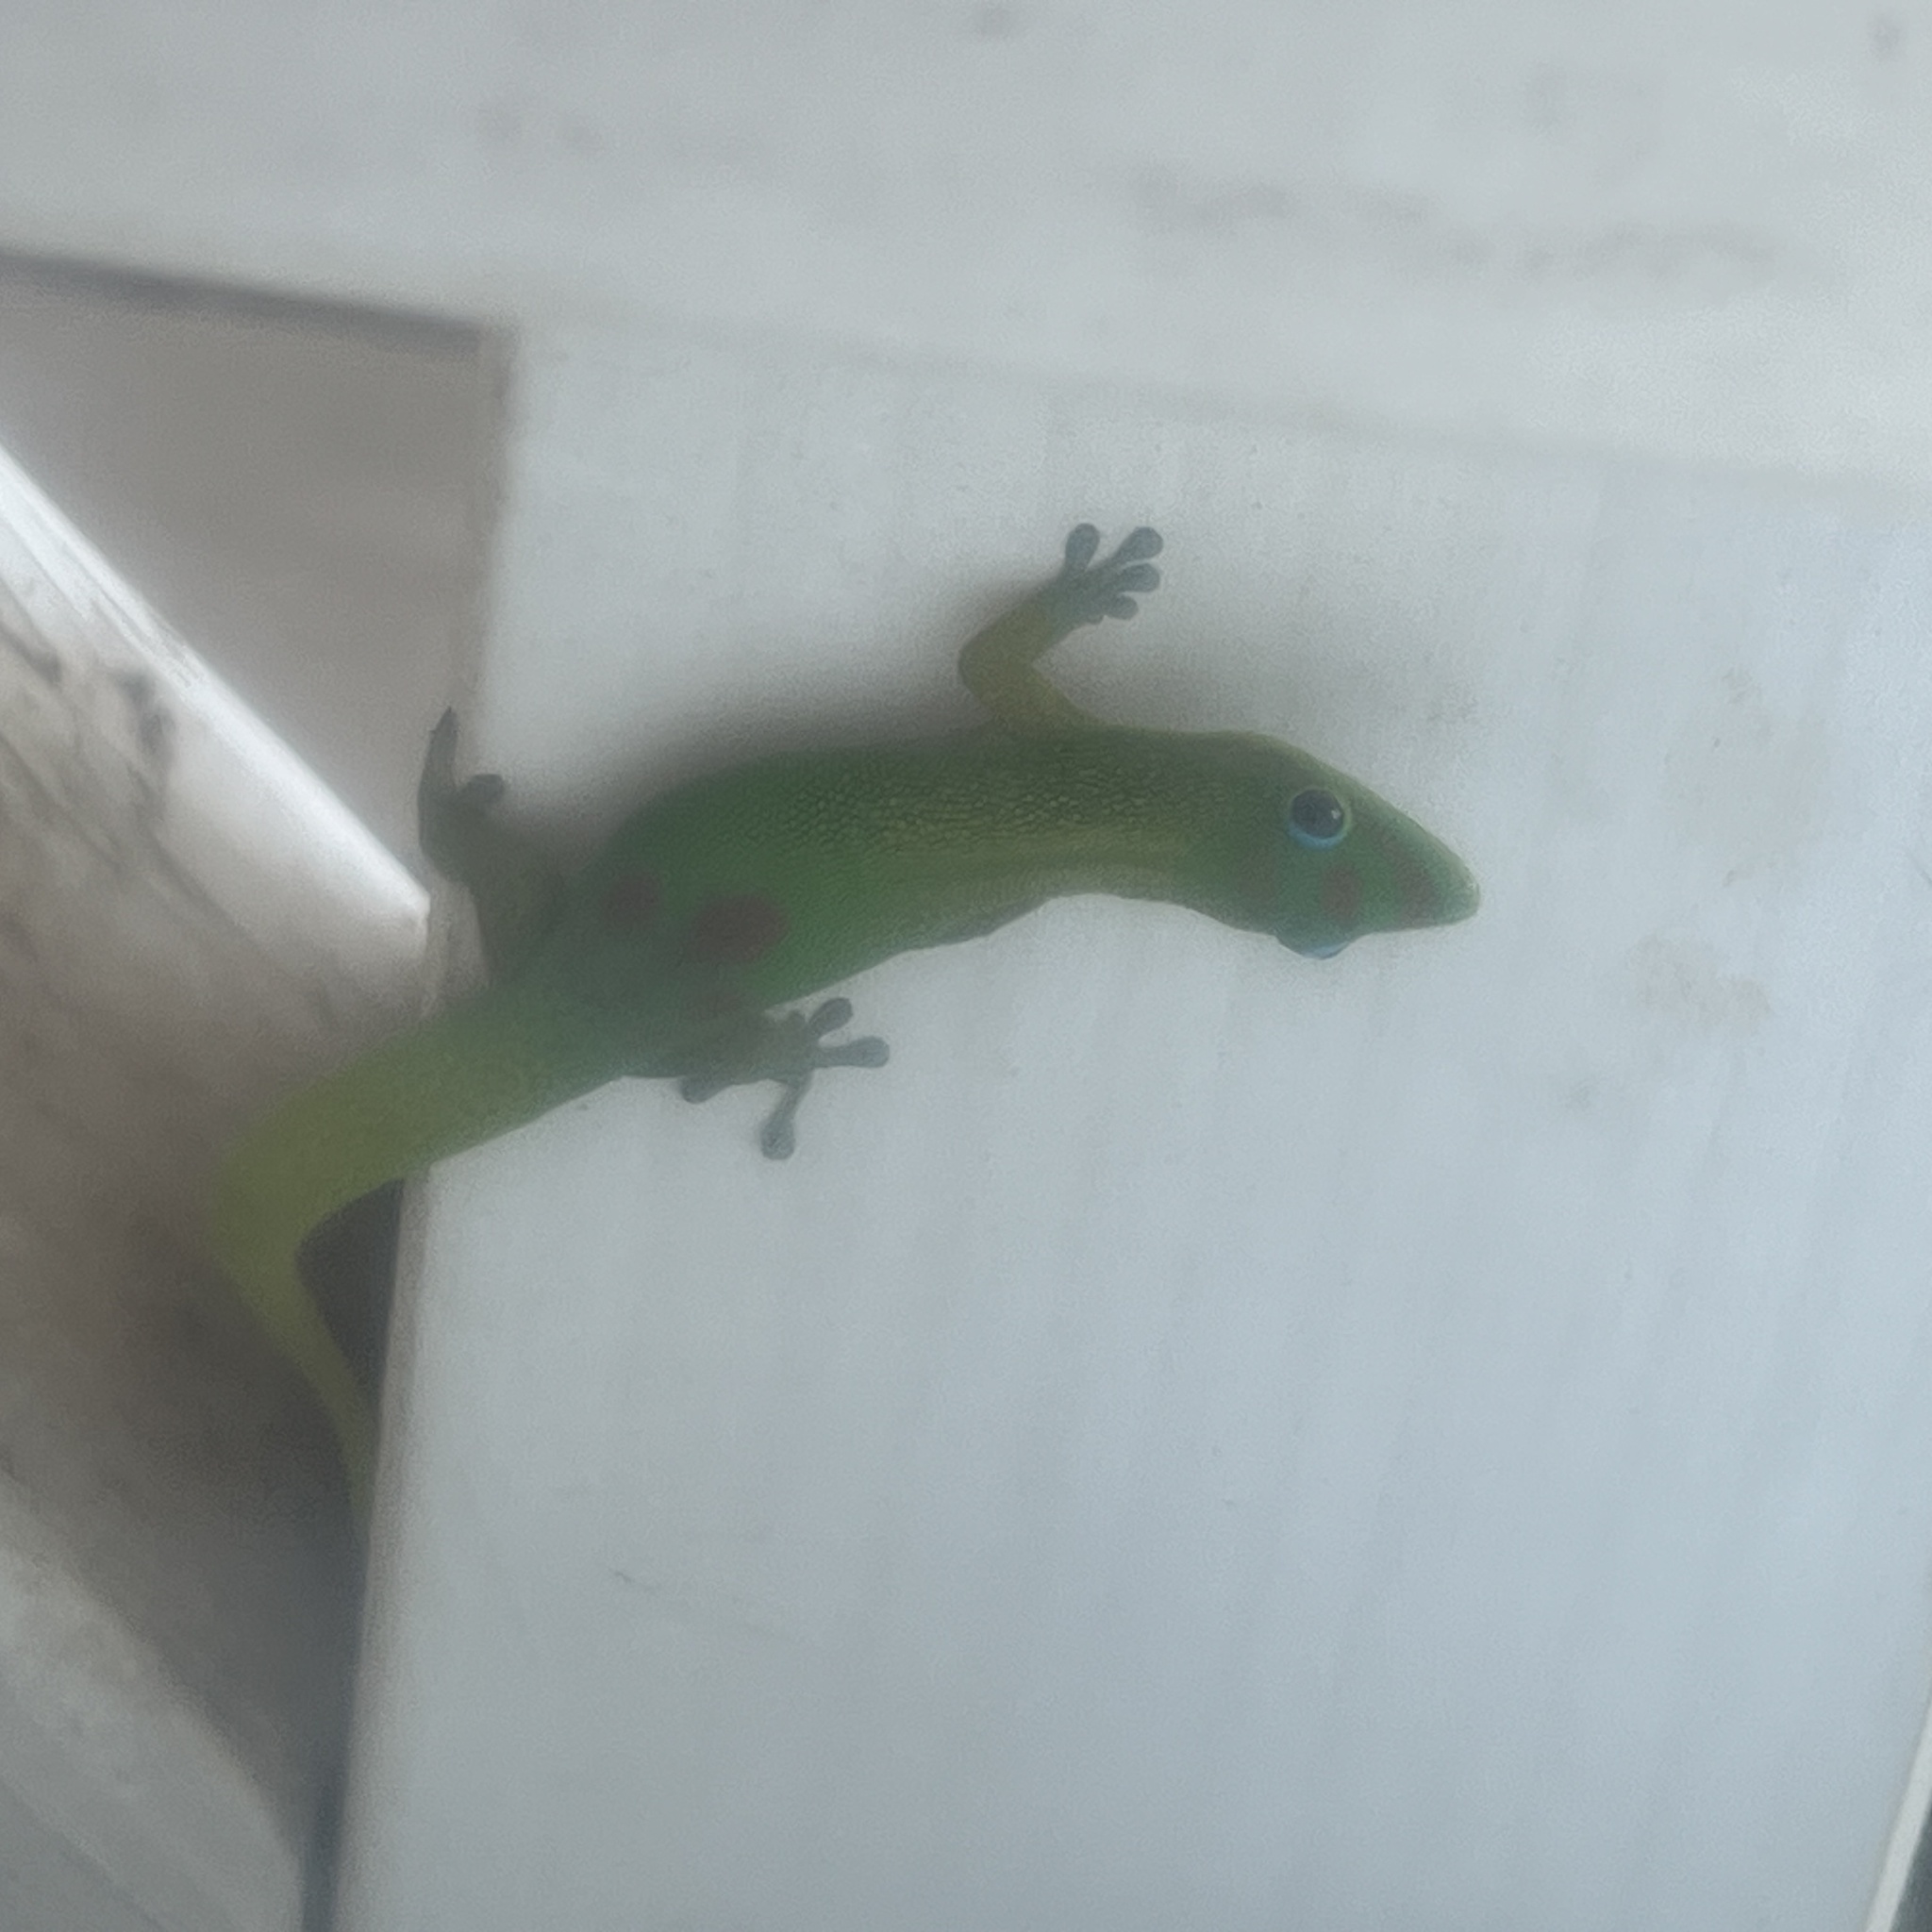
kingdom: Animalia
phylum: Chordata
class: Squamata
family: Gekkonidae
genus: Phelsuma
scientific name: Phelsuma laticauda
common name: Gold dust day gecko
